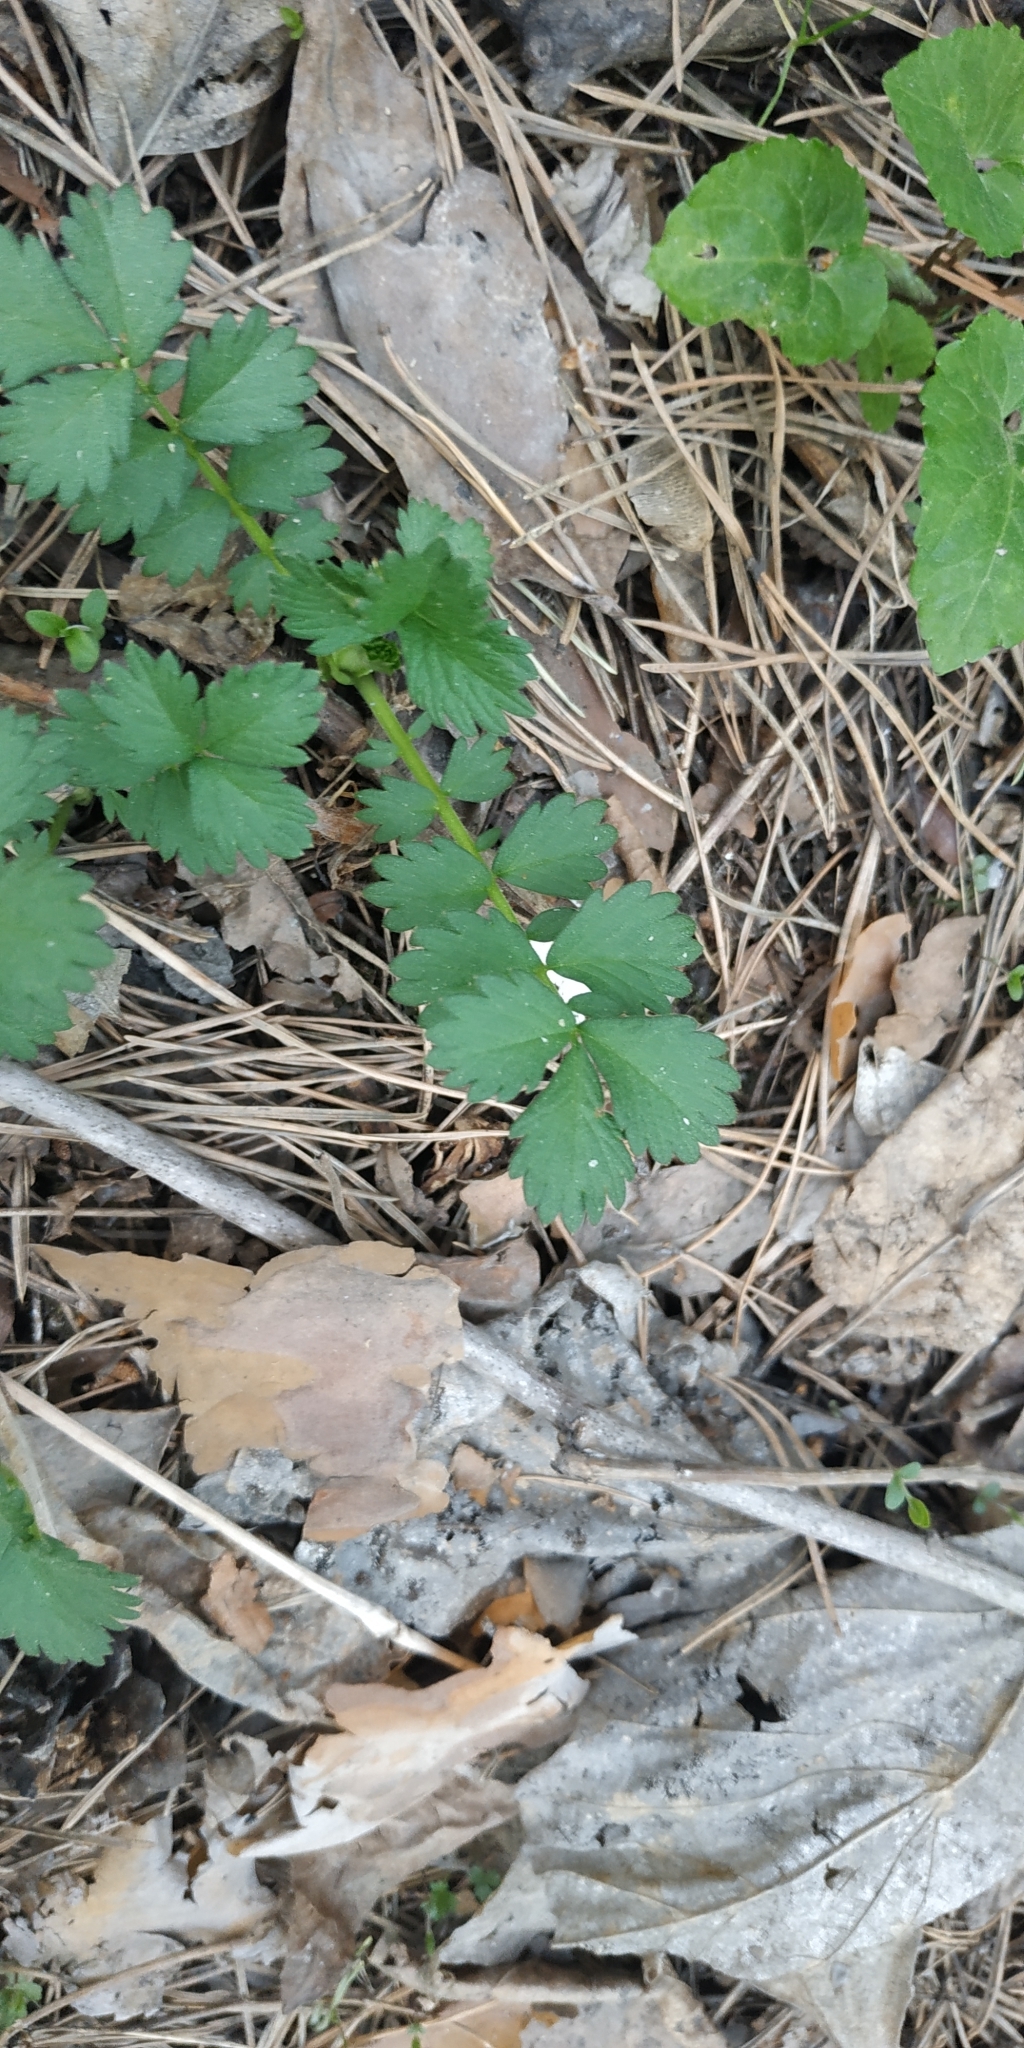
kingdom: Plantae
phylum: Tracheophyta
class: Magnoliopsida
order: Rosales
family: Rosaceae
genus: Agrimonia
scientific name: Agrimonia pilosa
